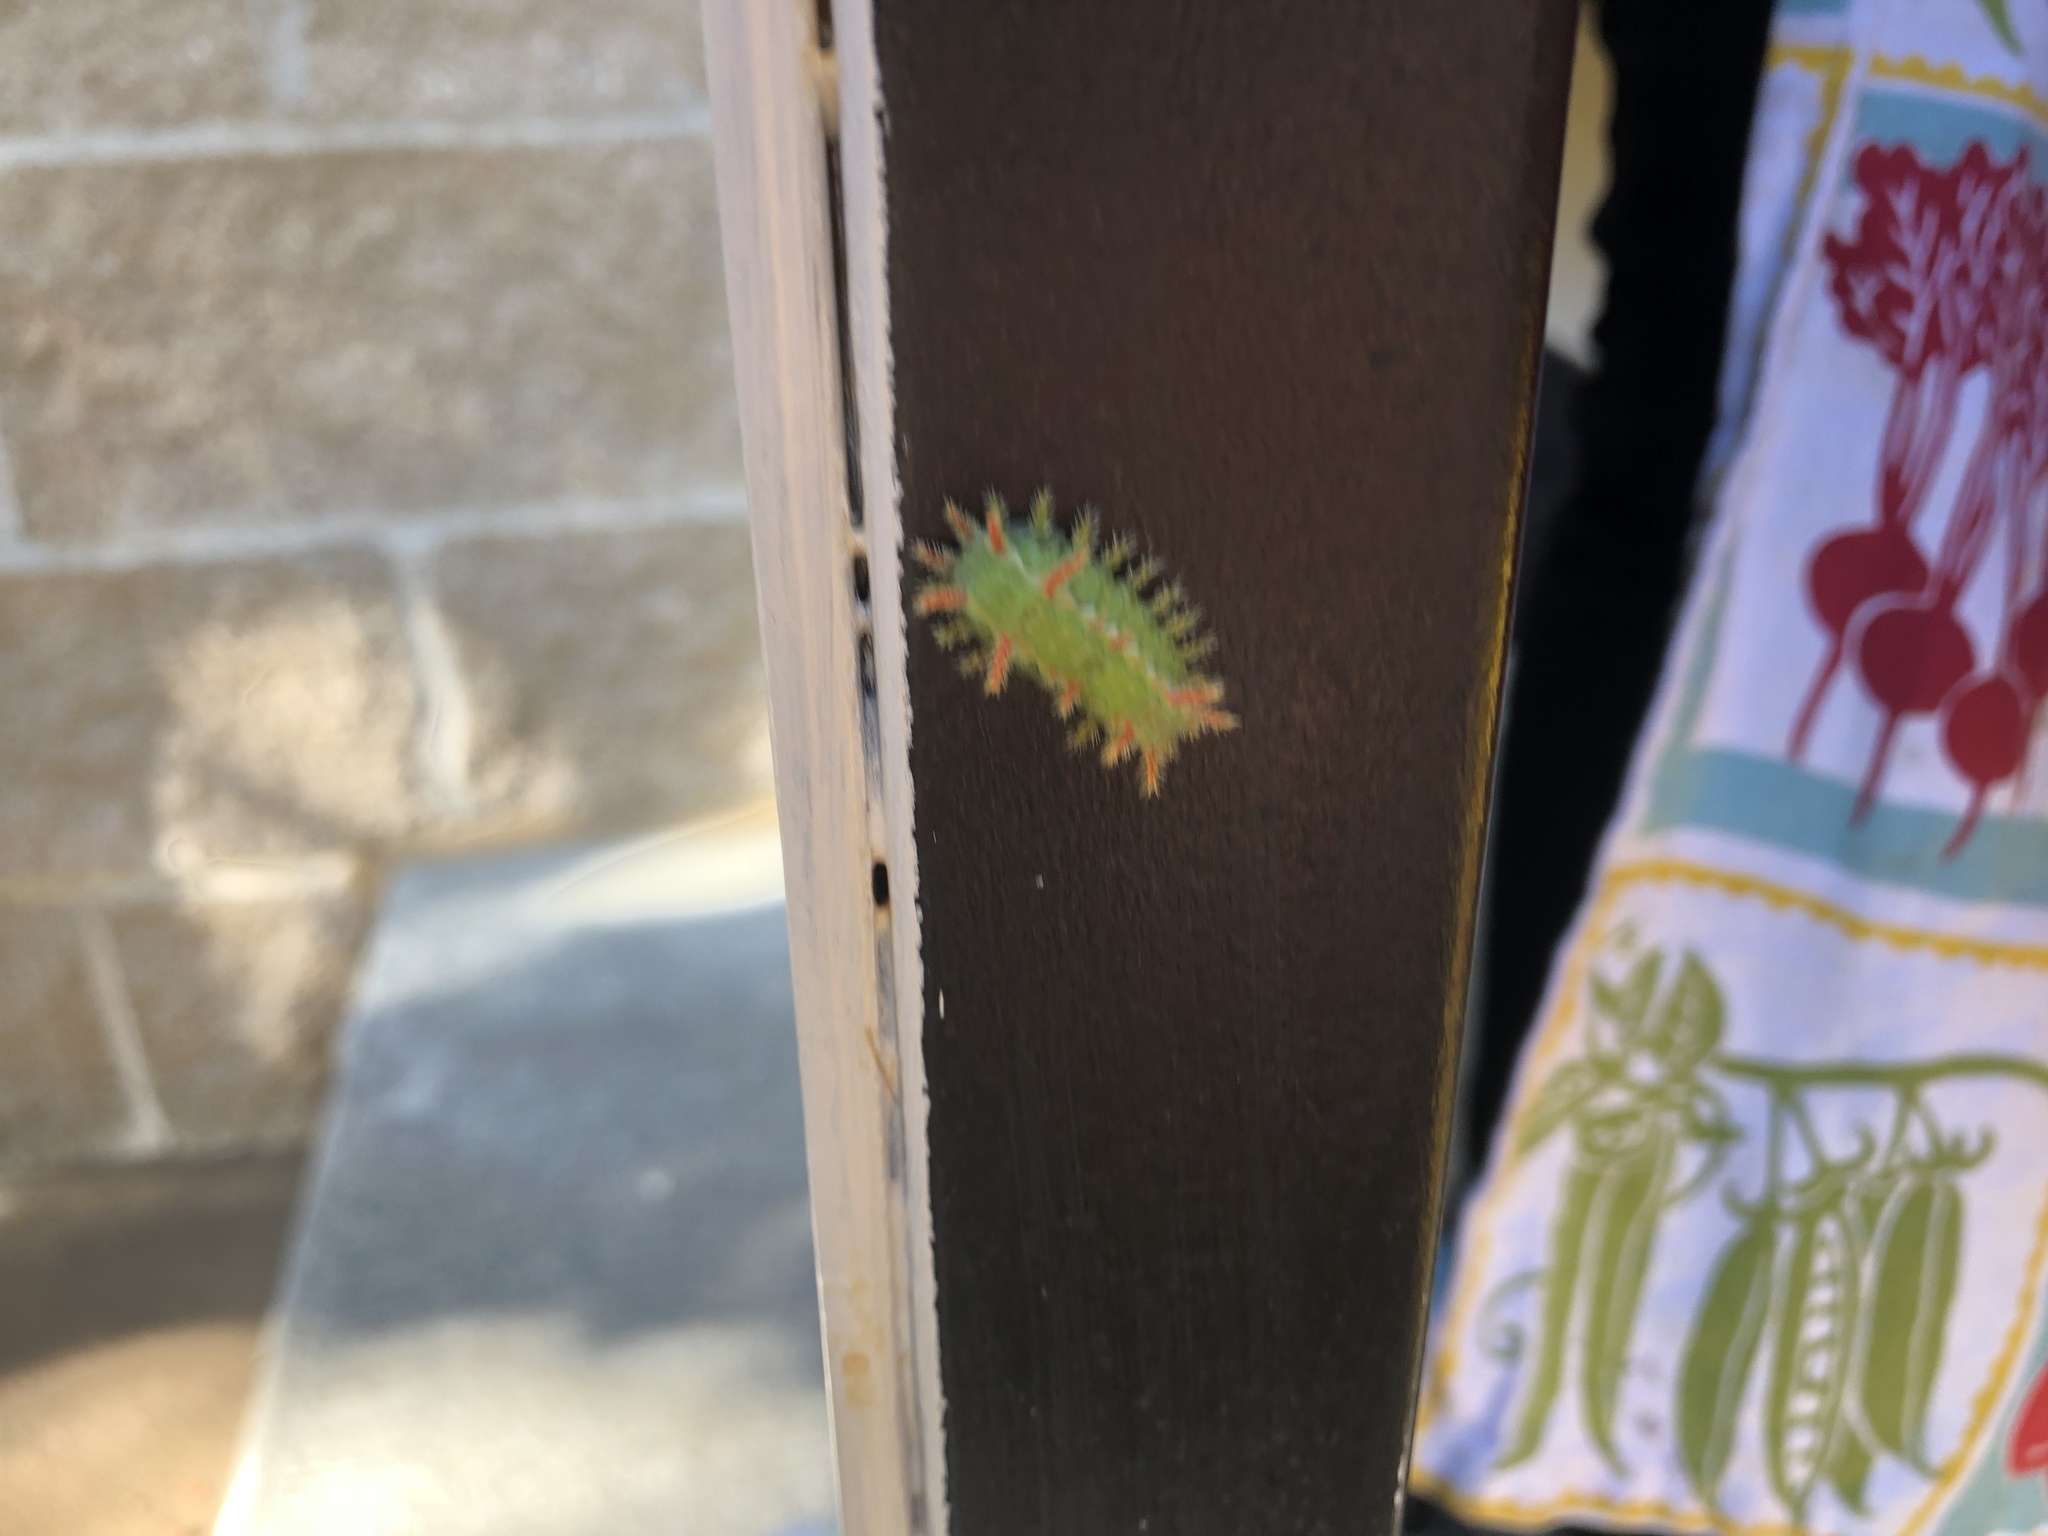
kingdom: Animalia
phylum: Arthropoda
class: Insecta
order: Lepidoptera
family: Limacodidae
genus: Euclea
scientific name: Euclea incisa
